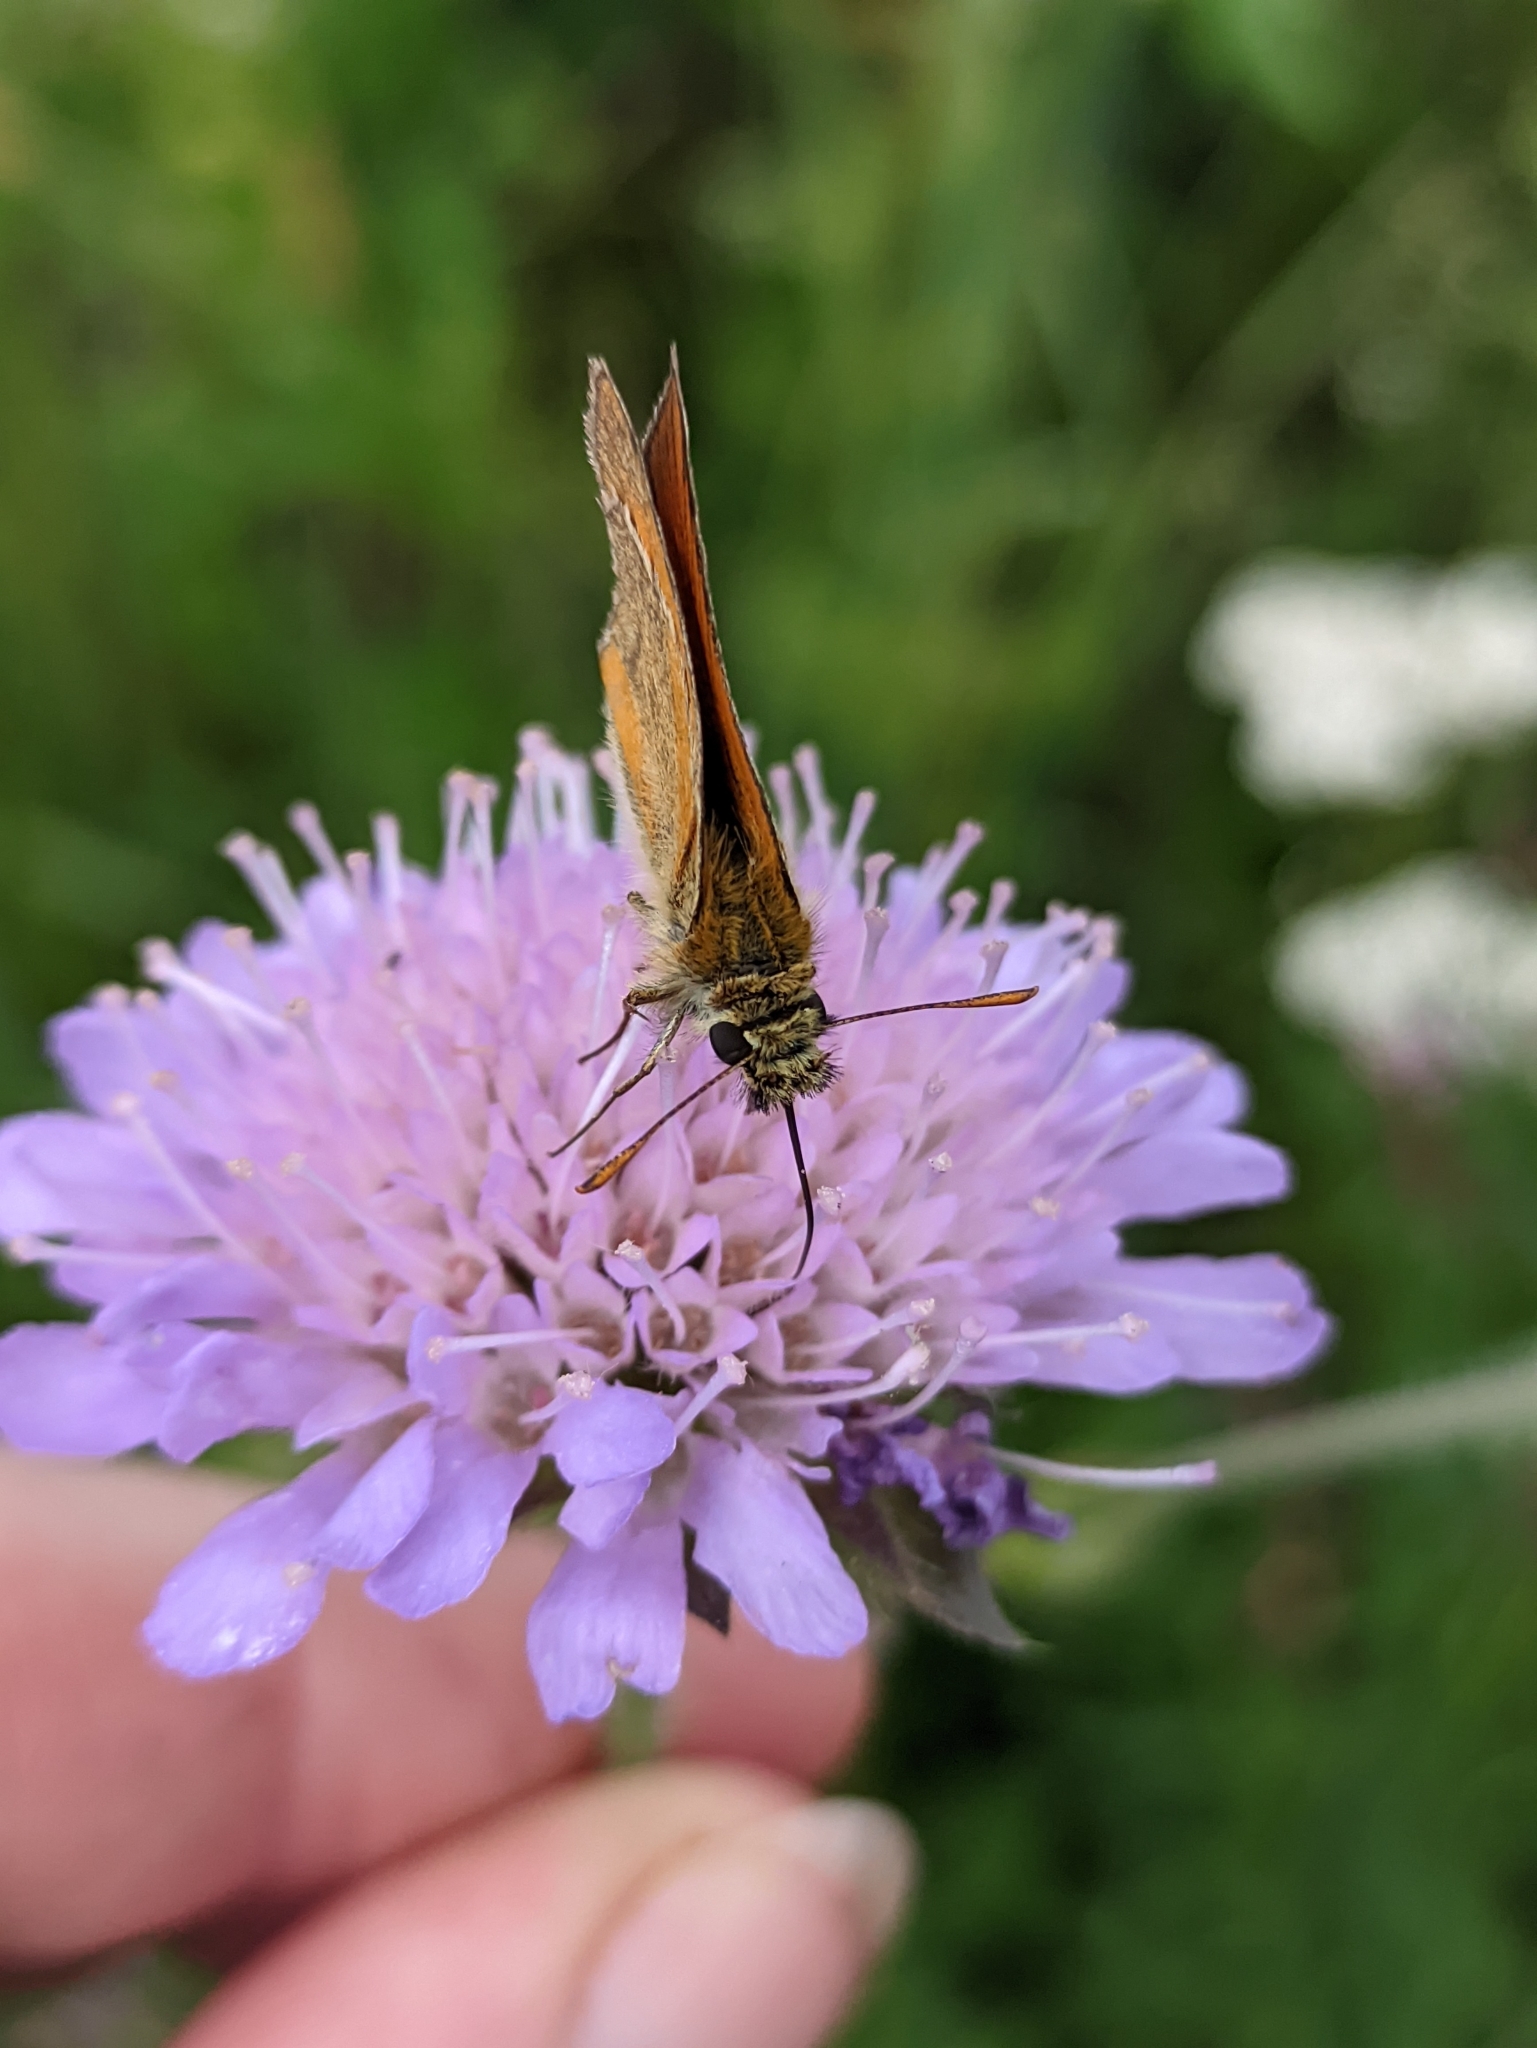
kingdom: Animalia
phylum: Arthropoda
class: Insecta
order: Lepidoptera
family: Hesperiidae
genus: Thymelicus
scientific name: Thymelicus sylvestris
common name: Small skipper
